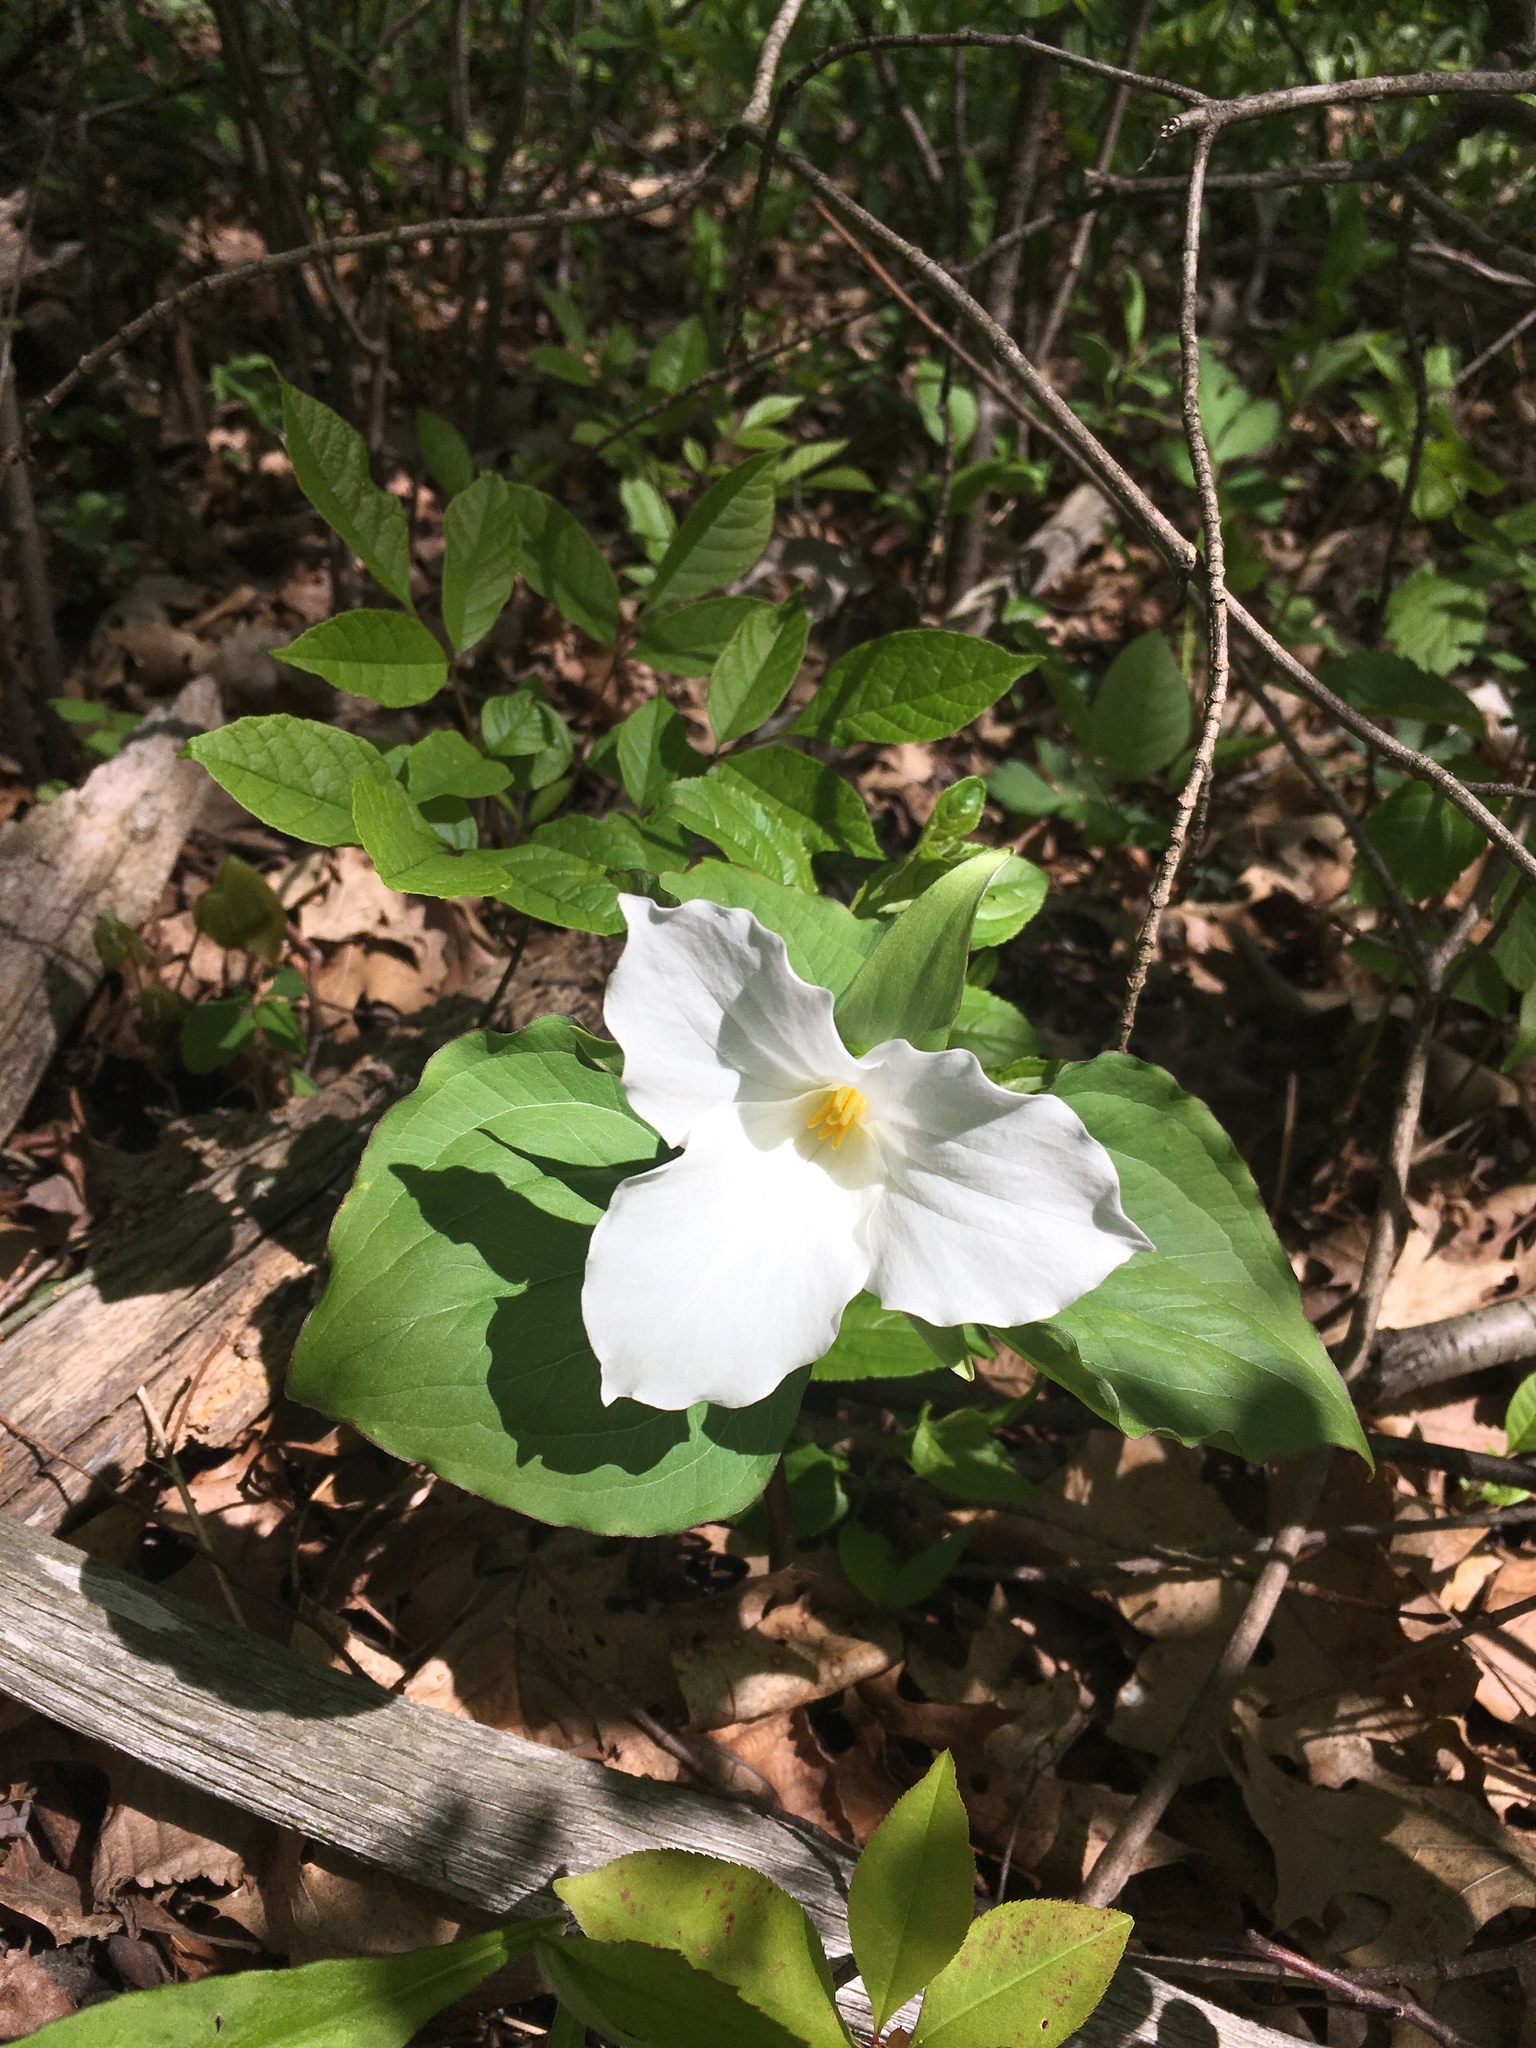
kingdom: Plantae
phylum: Tracheophyta
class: Liliopsida
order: Liliales
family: Melanthiaceae
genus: Trillium
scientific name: Trillium grandiflorum
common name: Great white trillium
